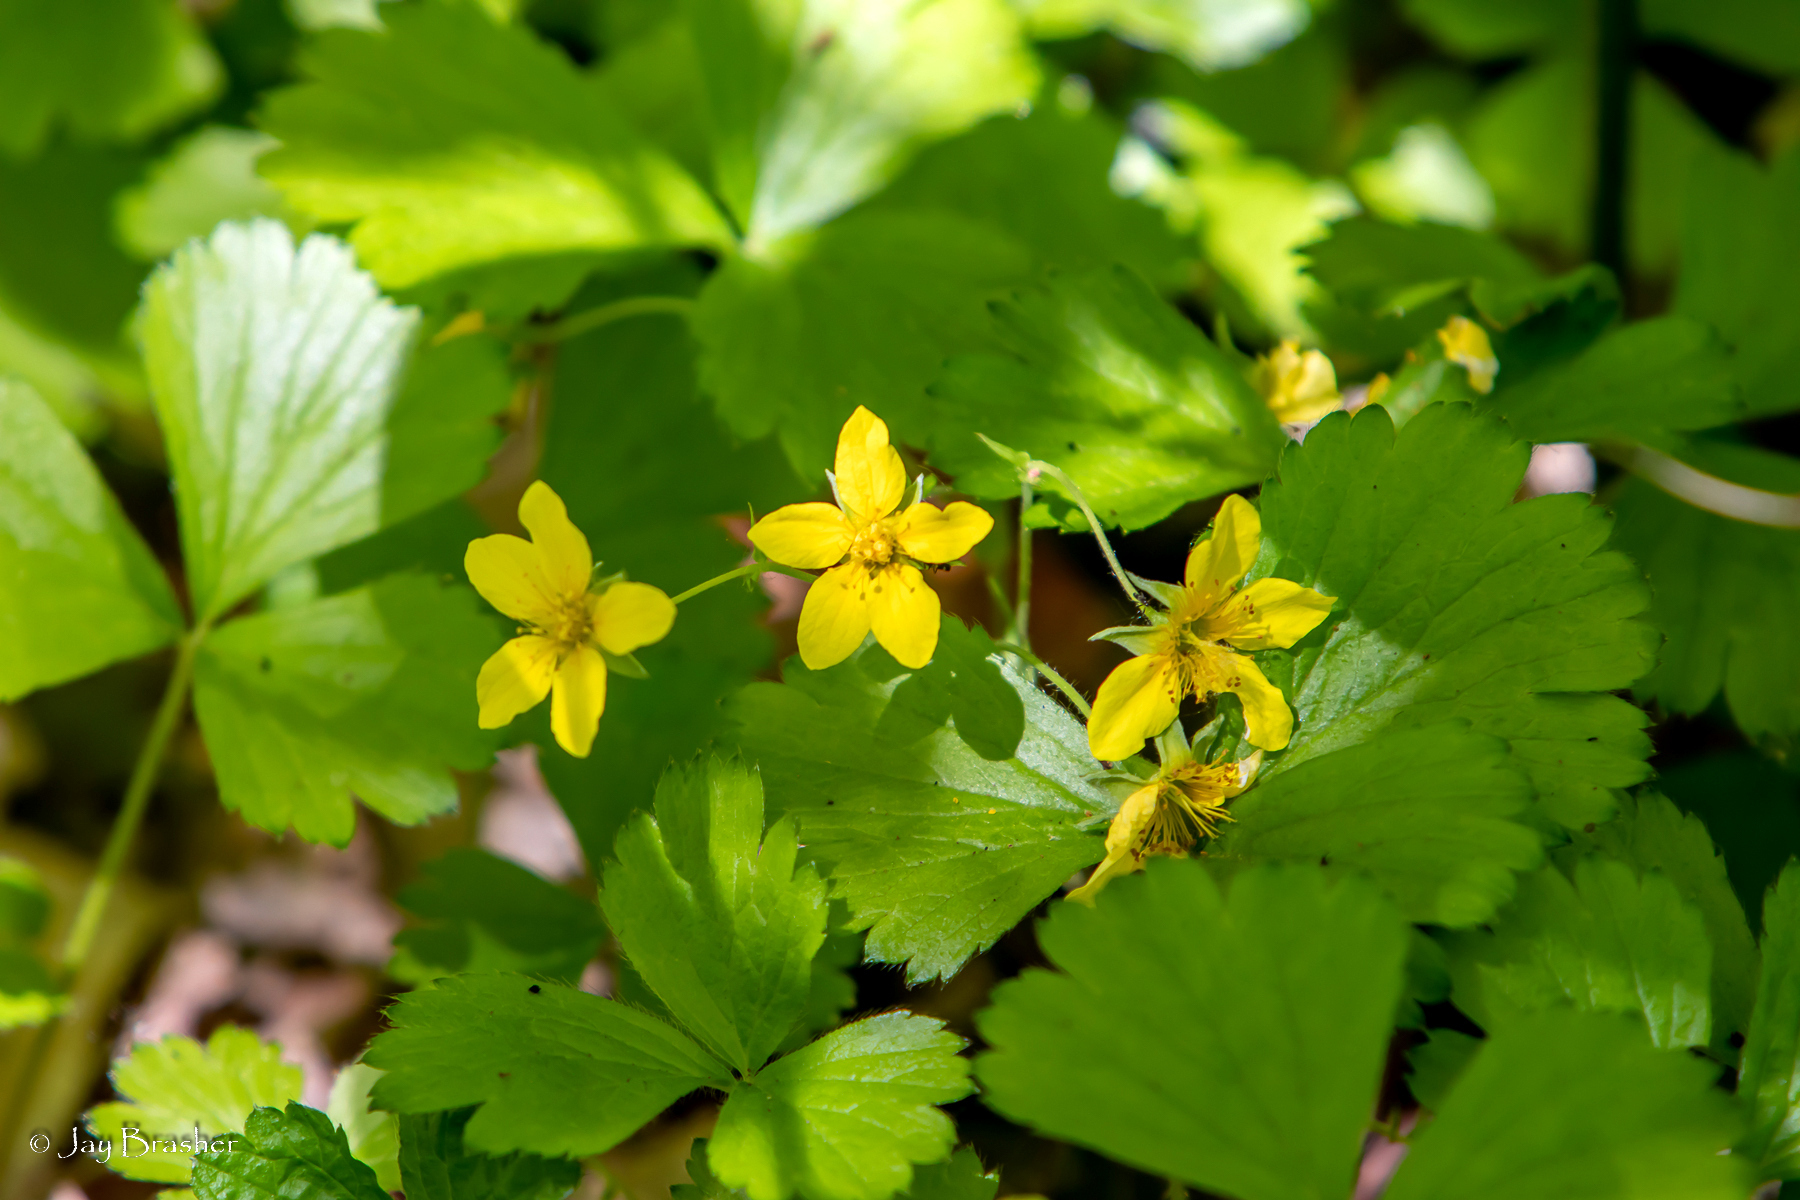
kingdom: Plantae
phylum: Tracheophyta
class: Magnoliopsida
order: Rosales
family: Rosaceae
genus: Geum
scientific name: Geum fragarioides
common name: Appalachian barren strawberry
